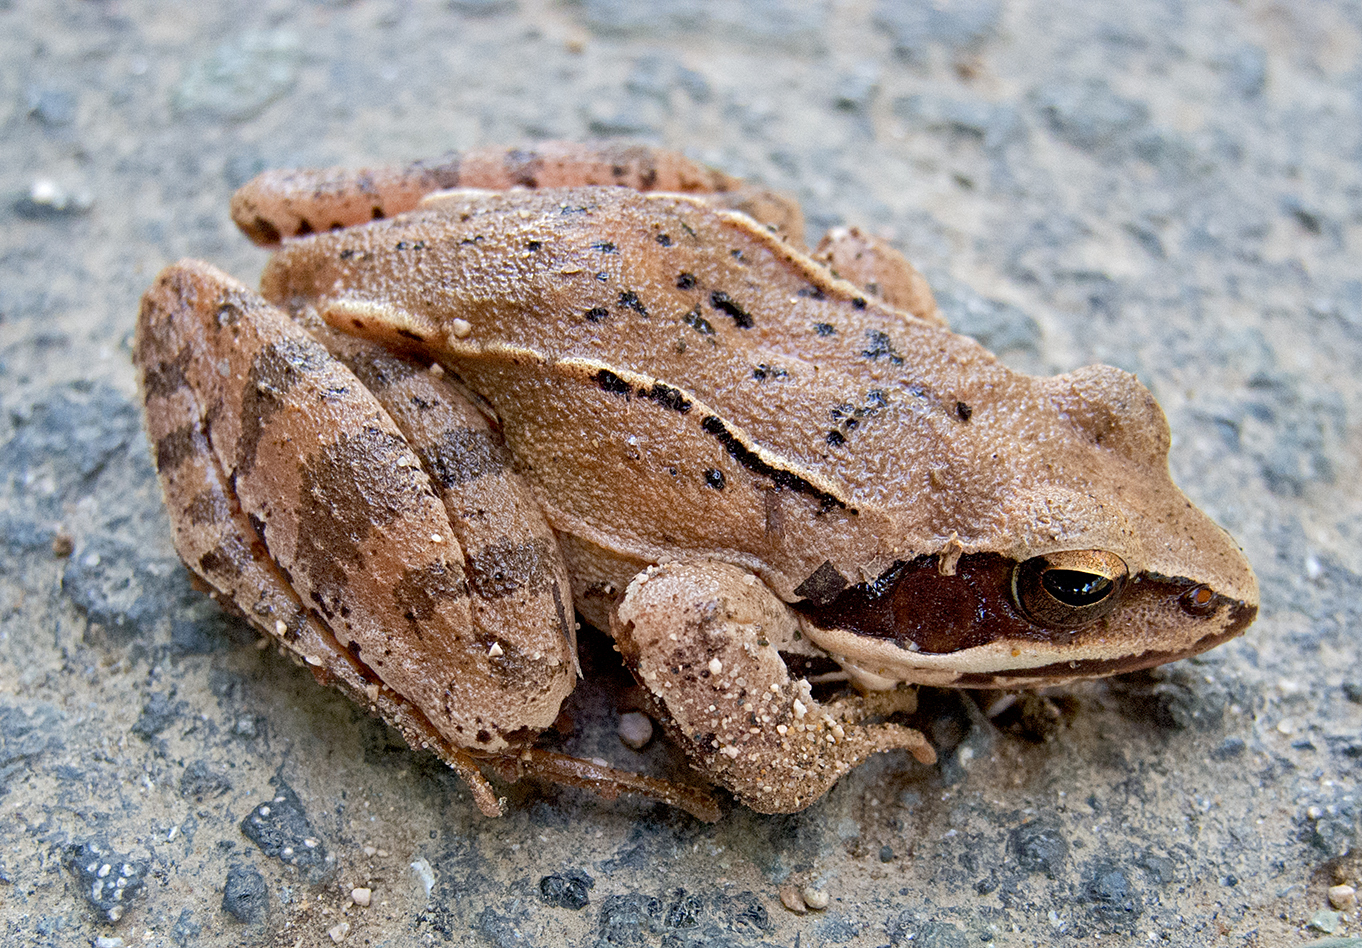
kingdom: Animalia
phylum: Chordata
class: Amphibia
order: Anura
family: Ranidae
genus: Rana
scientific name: Rana dalmatina
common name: Agile frog
